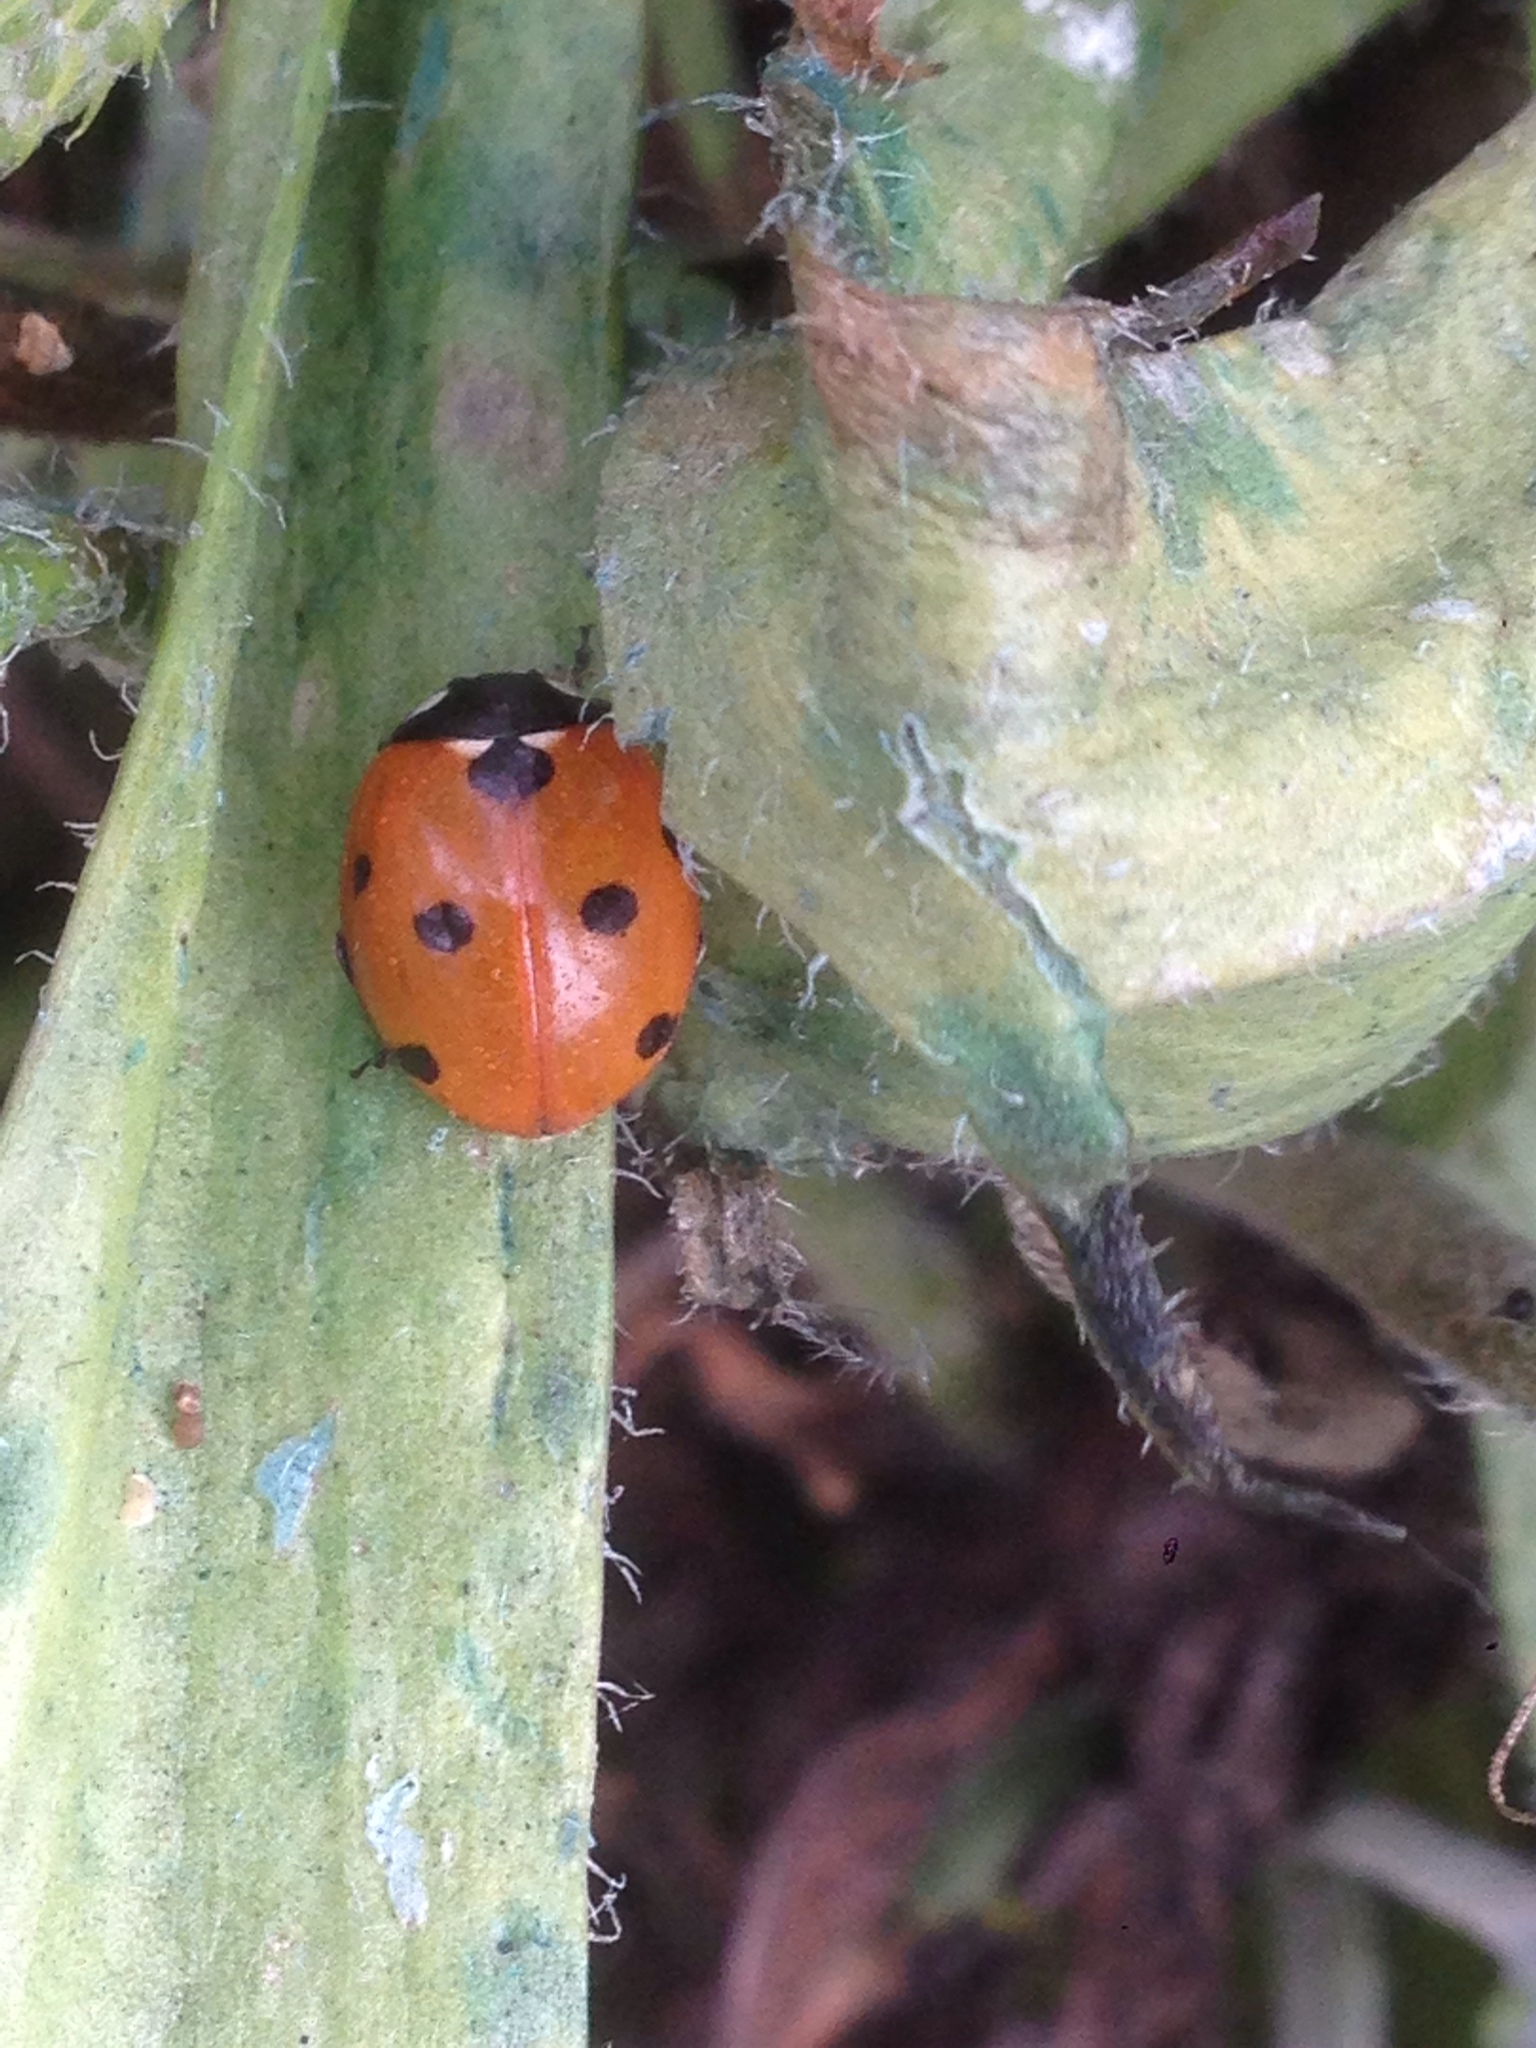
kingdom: Animalia
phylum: Arthropoda
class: Insecta
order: Coleoptera
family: Coccinellidae
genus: Coccinella
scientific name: Coccinella septempunctata
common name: Sevenspotted lady beetle
